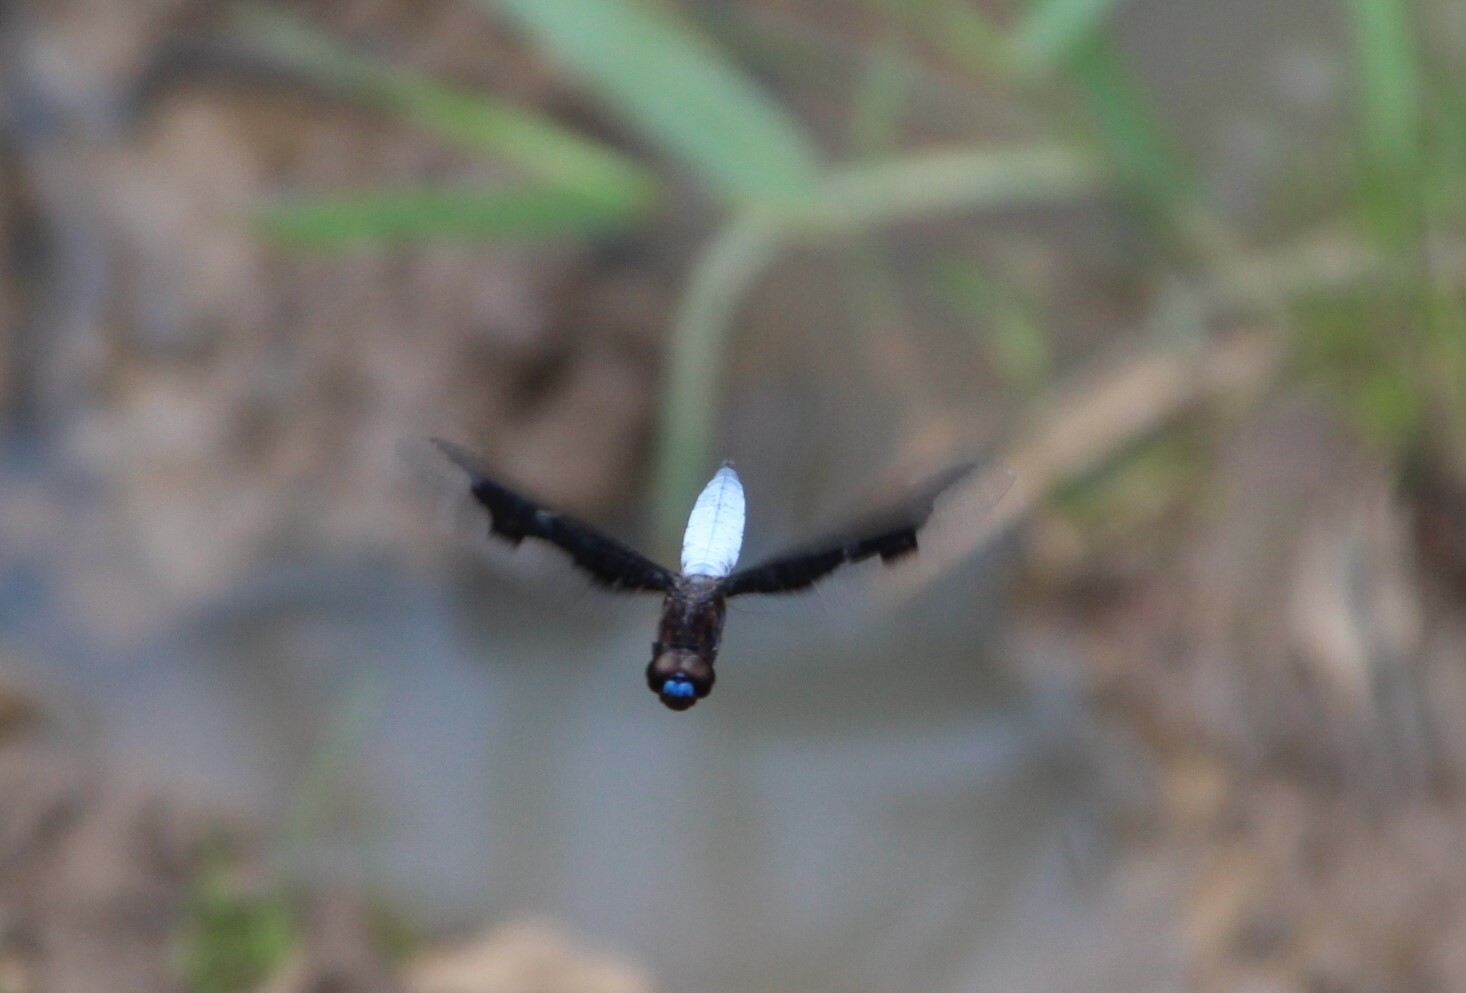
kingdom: Animalia
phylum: Arthropoda
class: Insecta
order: Odonata
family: Libellulidae
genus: Palpopleura
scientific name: Palpopleura lucia
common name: Lucia widow
